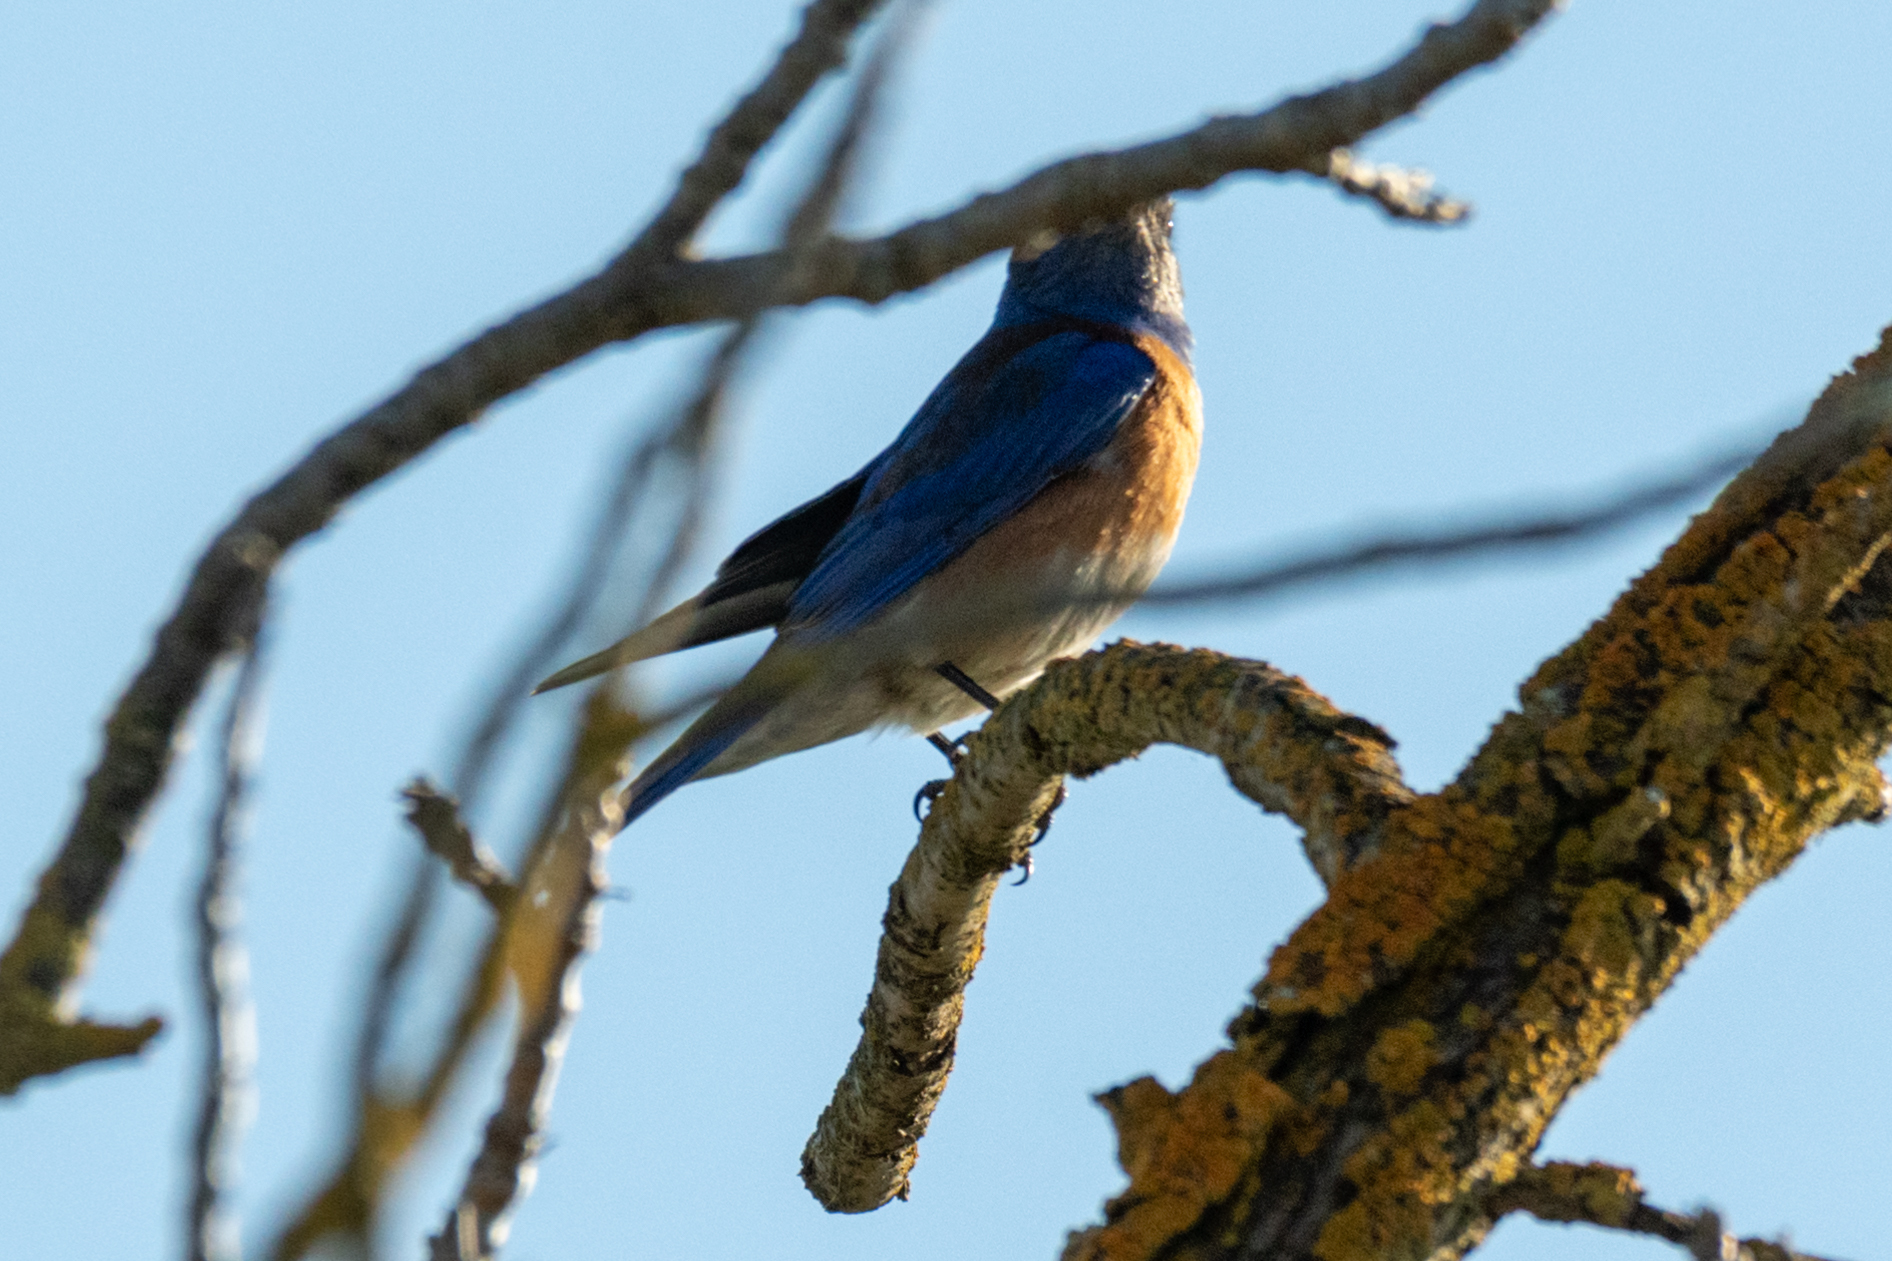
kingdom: Animalia
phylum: Chordata
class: Aves
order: Passeriformes
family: Turdidae
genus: Sialia
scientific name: Sialia mexicana
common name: Western bluebird
